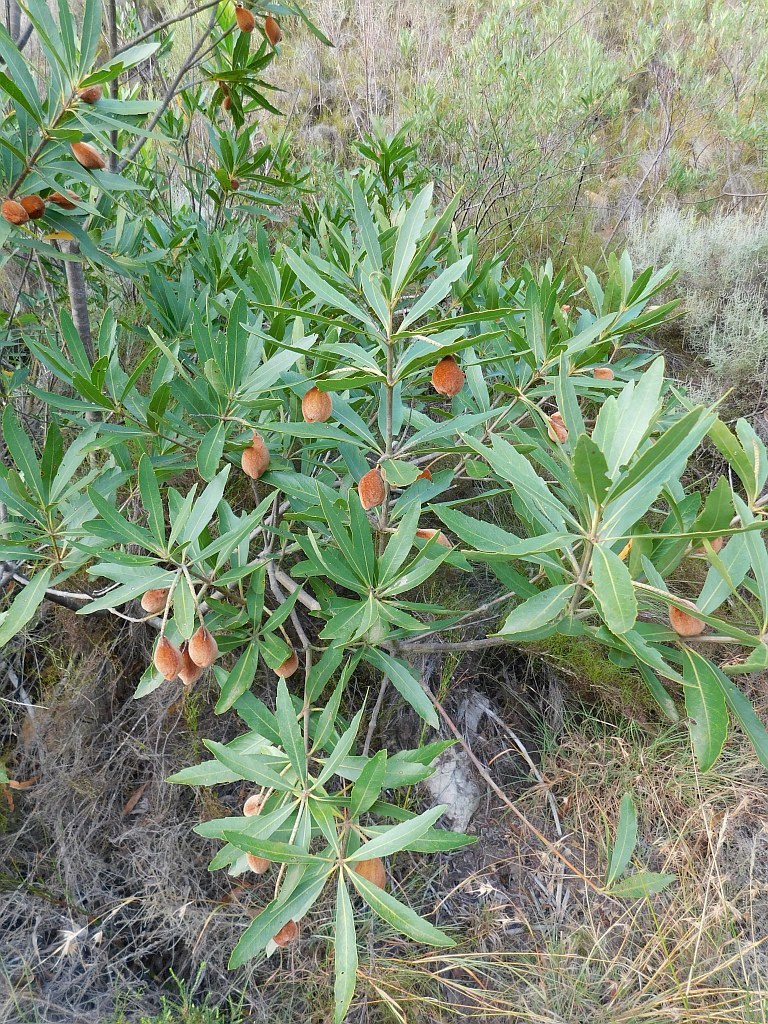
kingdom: Plantae
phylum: Tracheophyta
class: Magnoliopsida
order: Proteales
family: Proteaceae
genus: Brabejum
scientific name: Brabejum stellatifolium
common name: Wild almond
